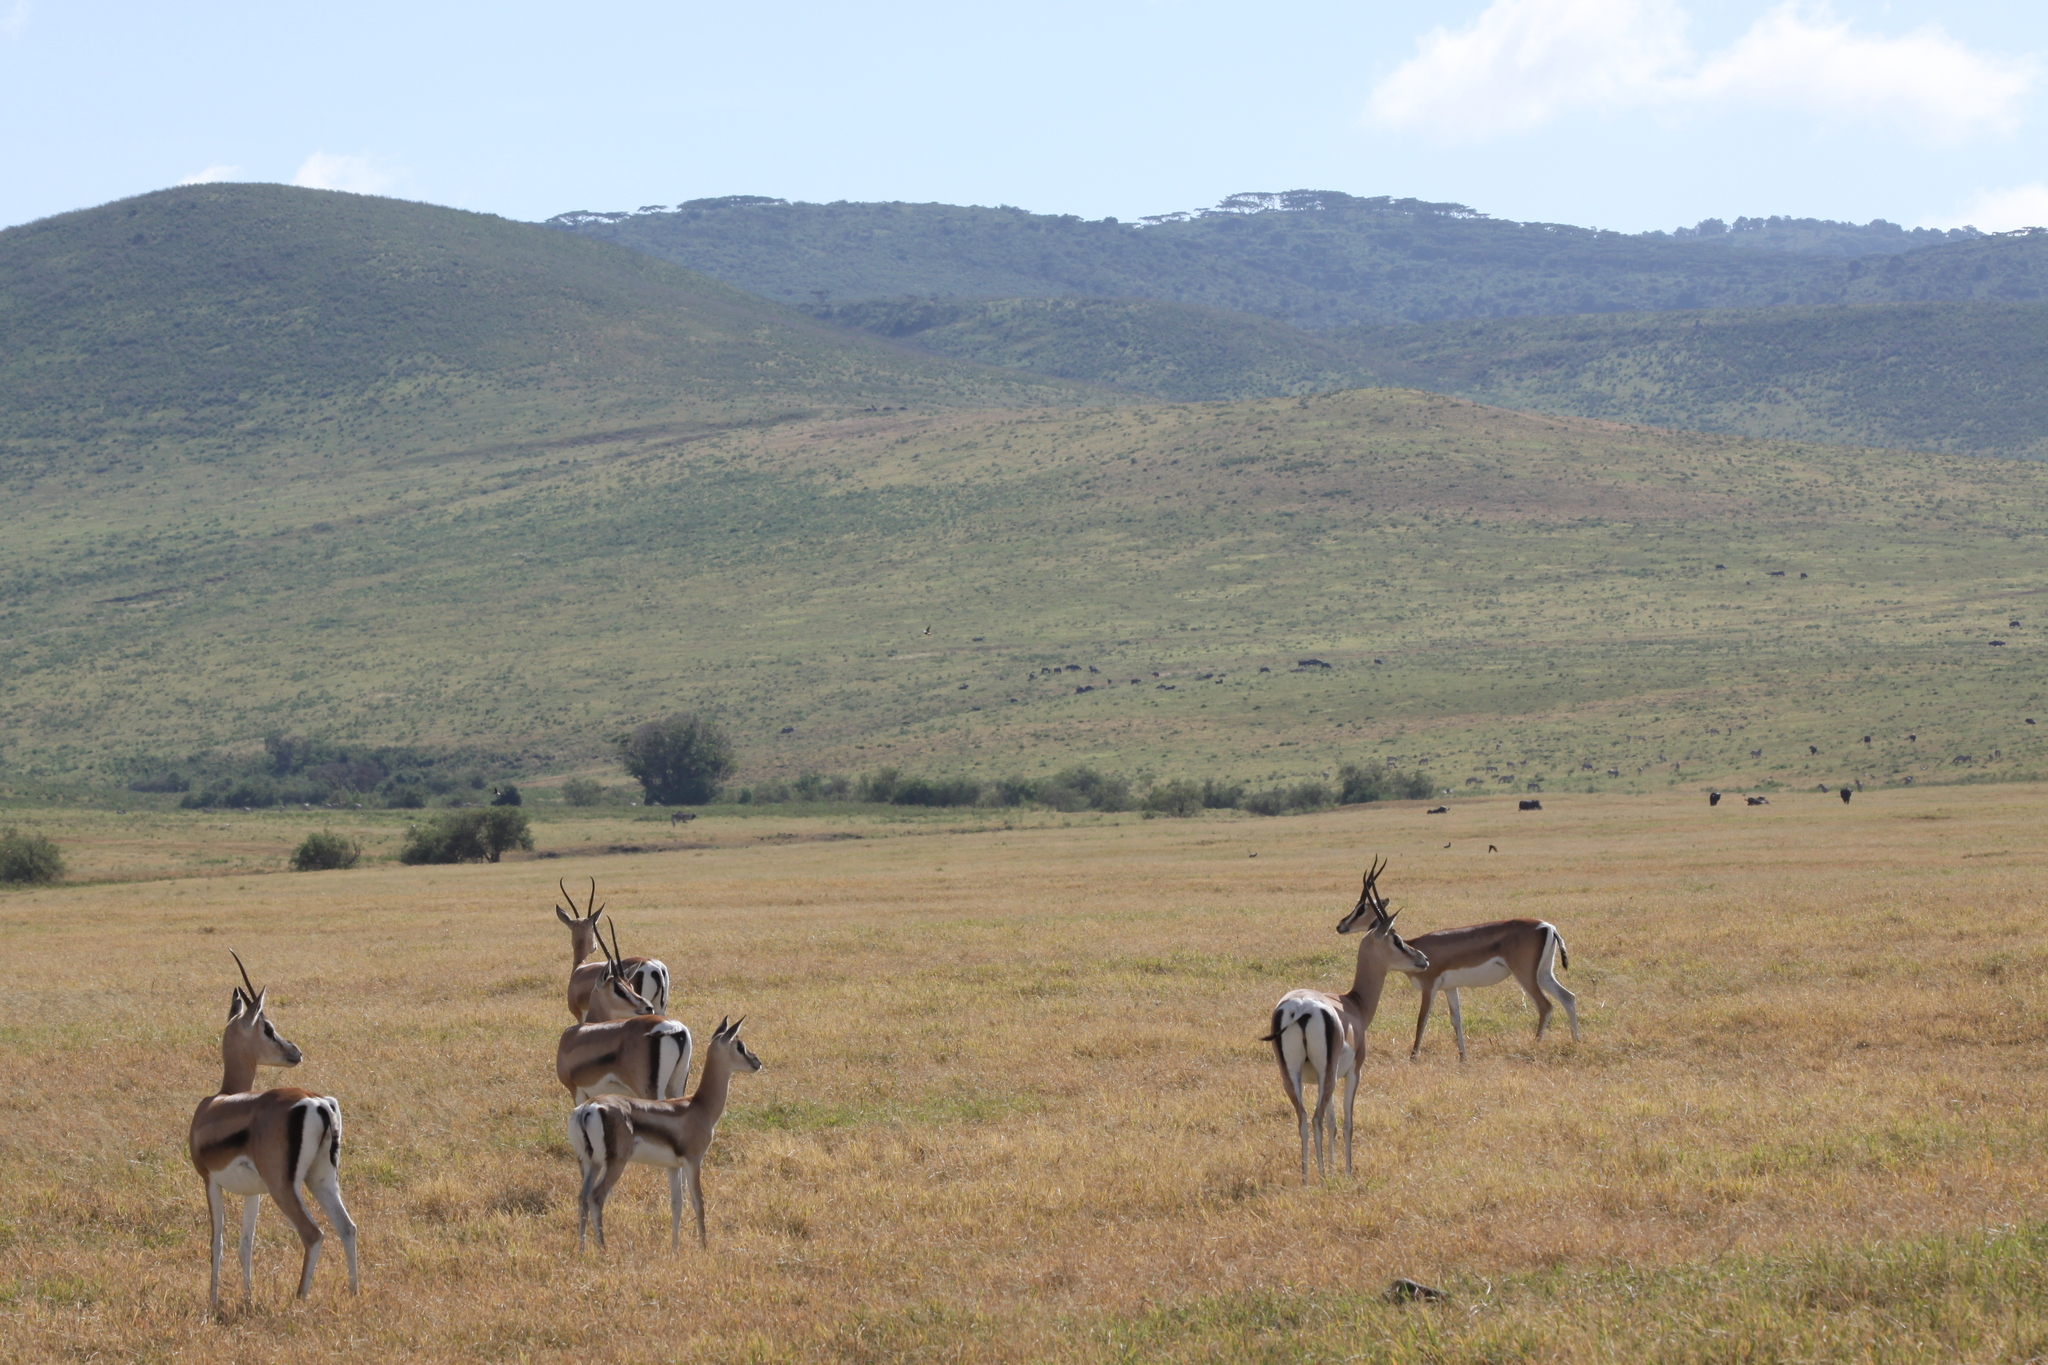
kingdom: Animalia
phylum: Chordata
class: Mammalia
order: Artiodactyla
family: Bovidae
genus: Nanger
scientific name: Nanger granti
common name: Grant's gazelle
